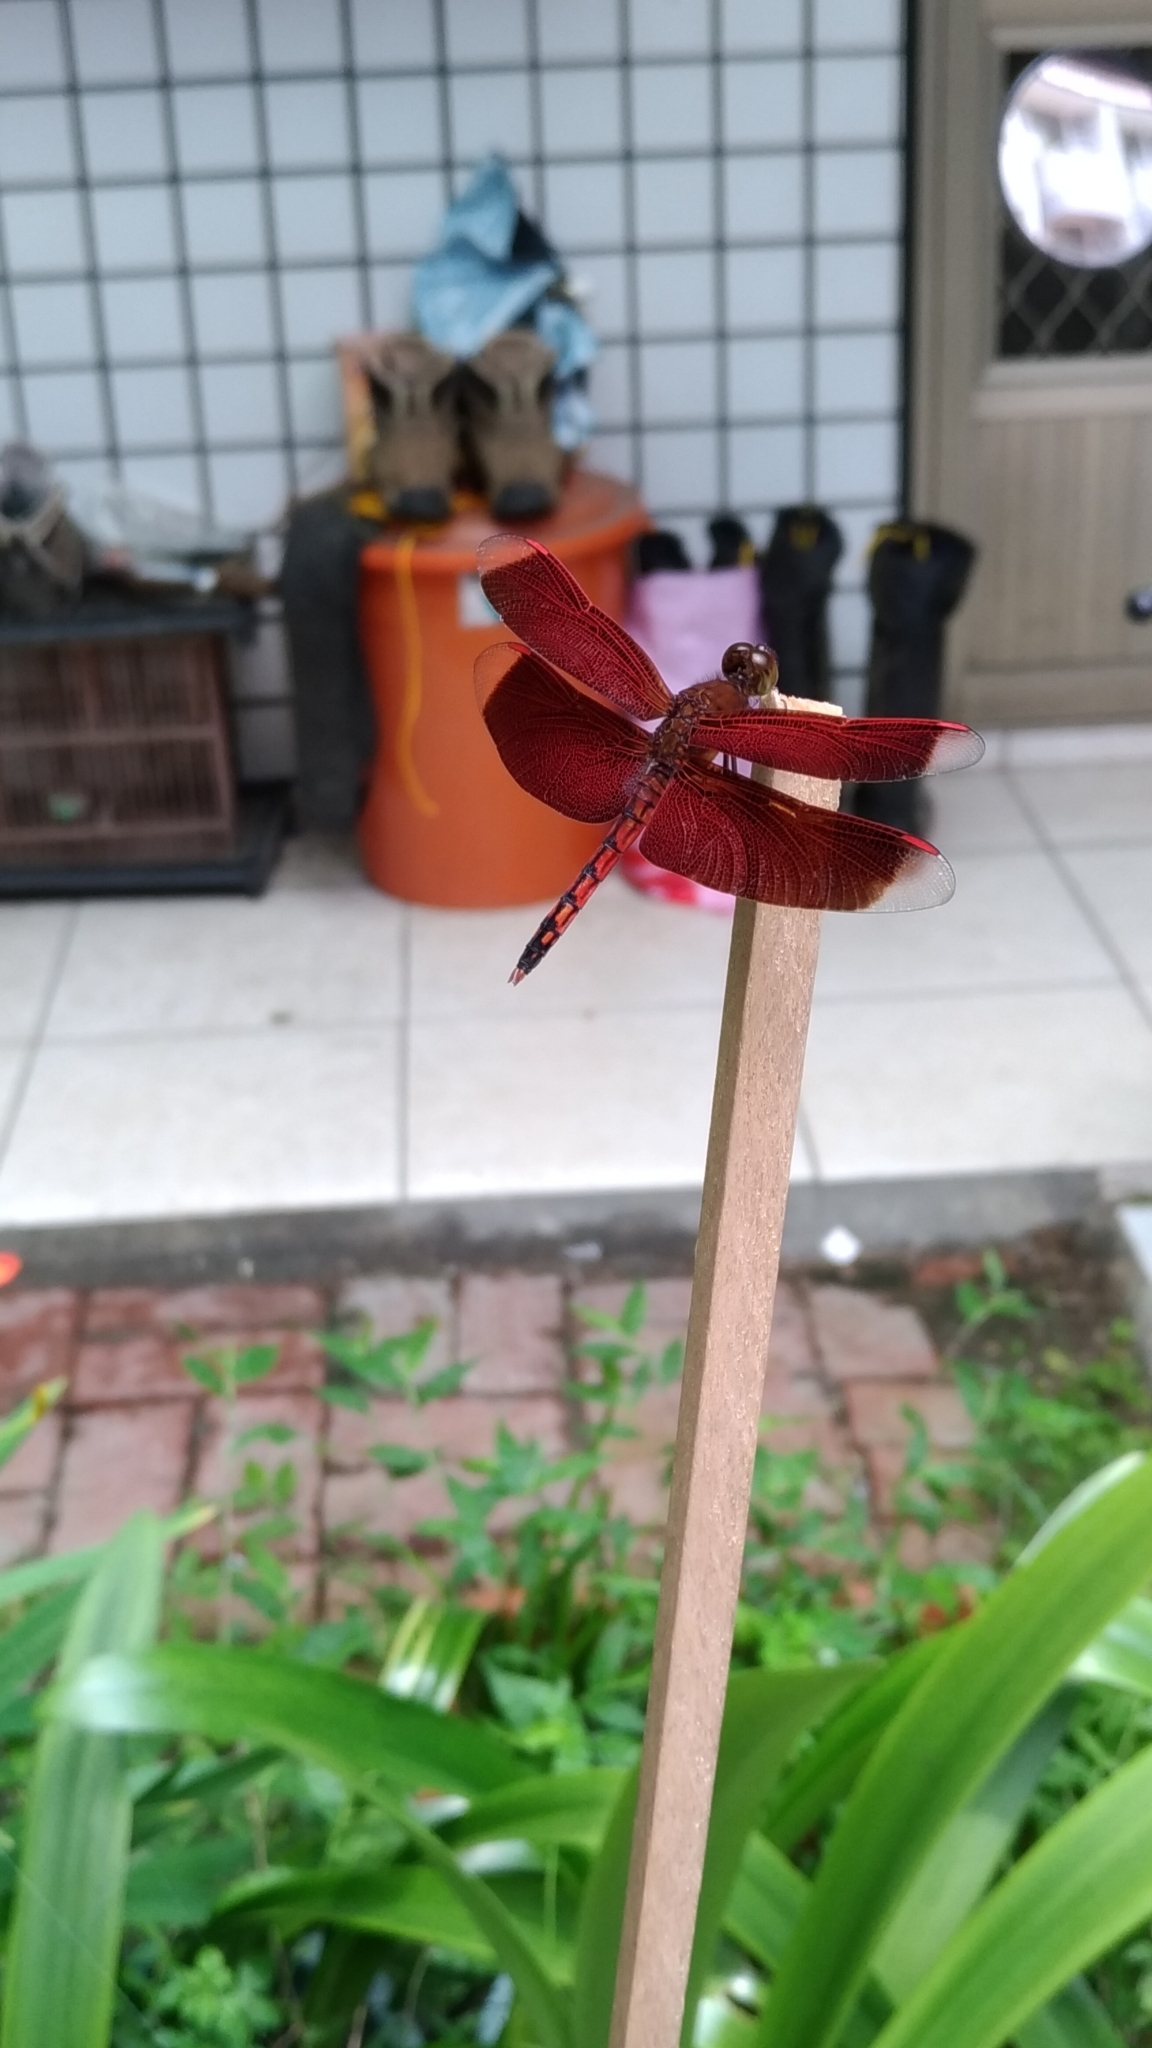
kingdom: Animalia
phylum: Arthropoda
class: Insecta
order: Odonata
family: Libellulidae
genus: Neurothemis
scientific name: Neurothemis taiwanensis
